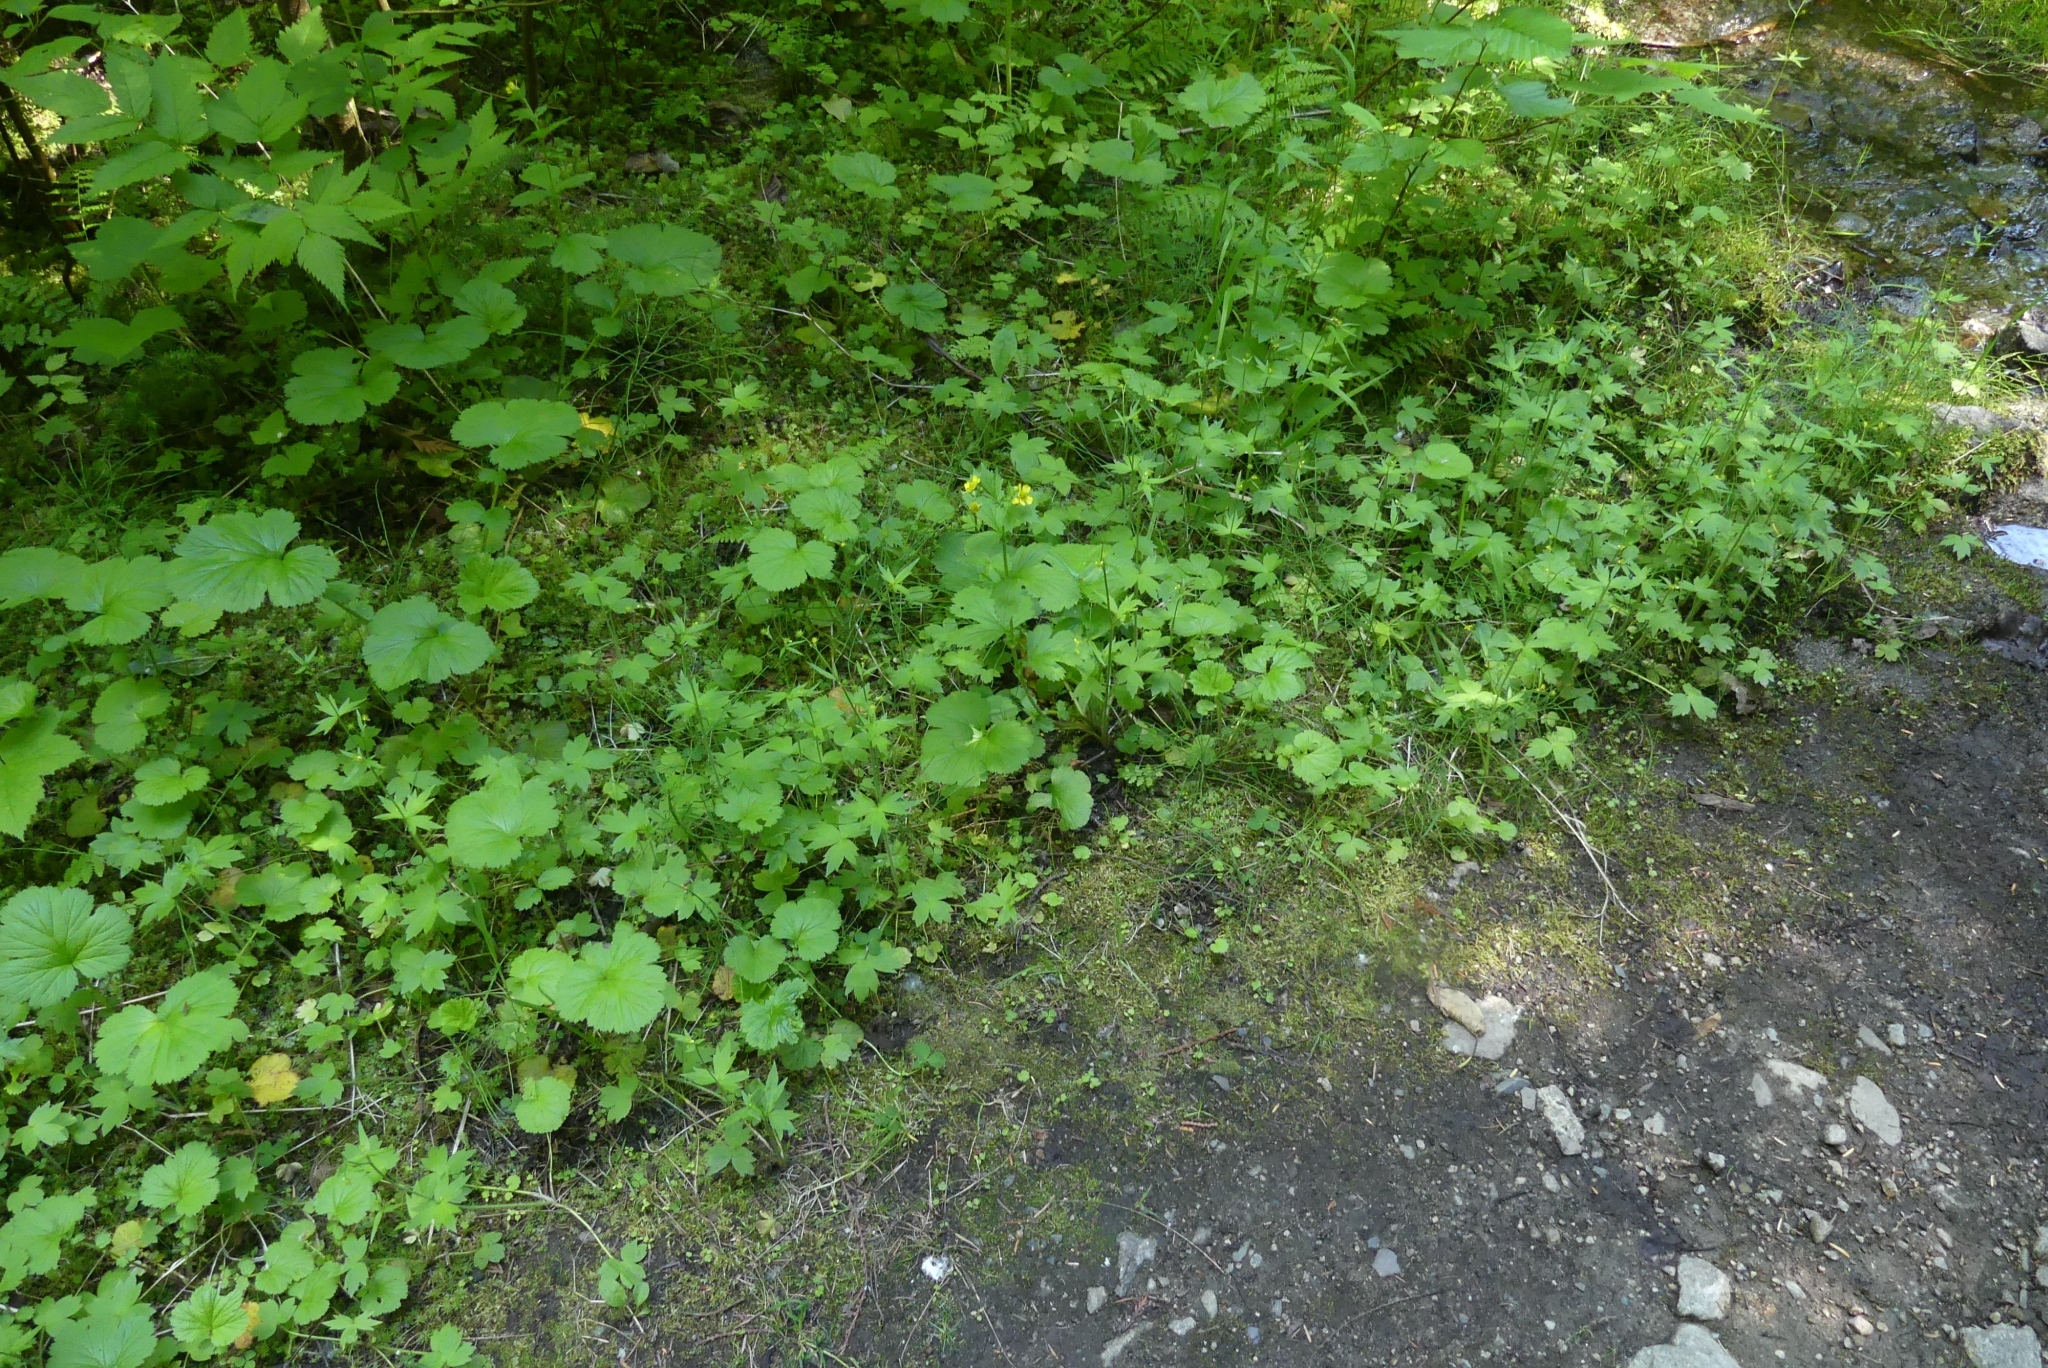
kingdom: Plantae
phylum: Tracheophyta
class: Magnoliopsida
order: Rosales
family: Rosaceae
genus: Geum
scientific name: Geum macrophyllum
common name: Large-leaved avens
